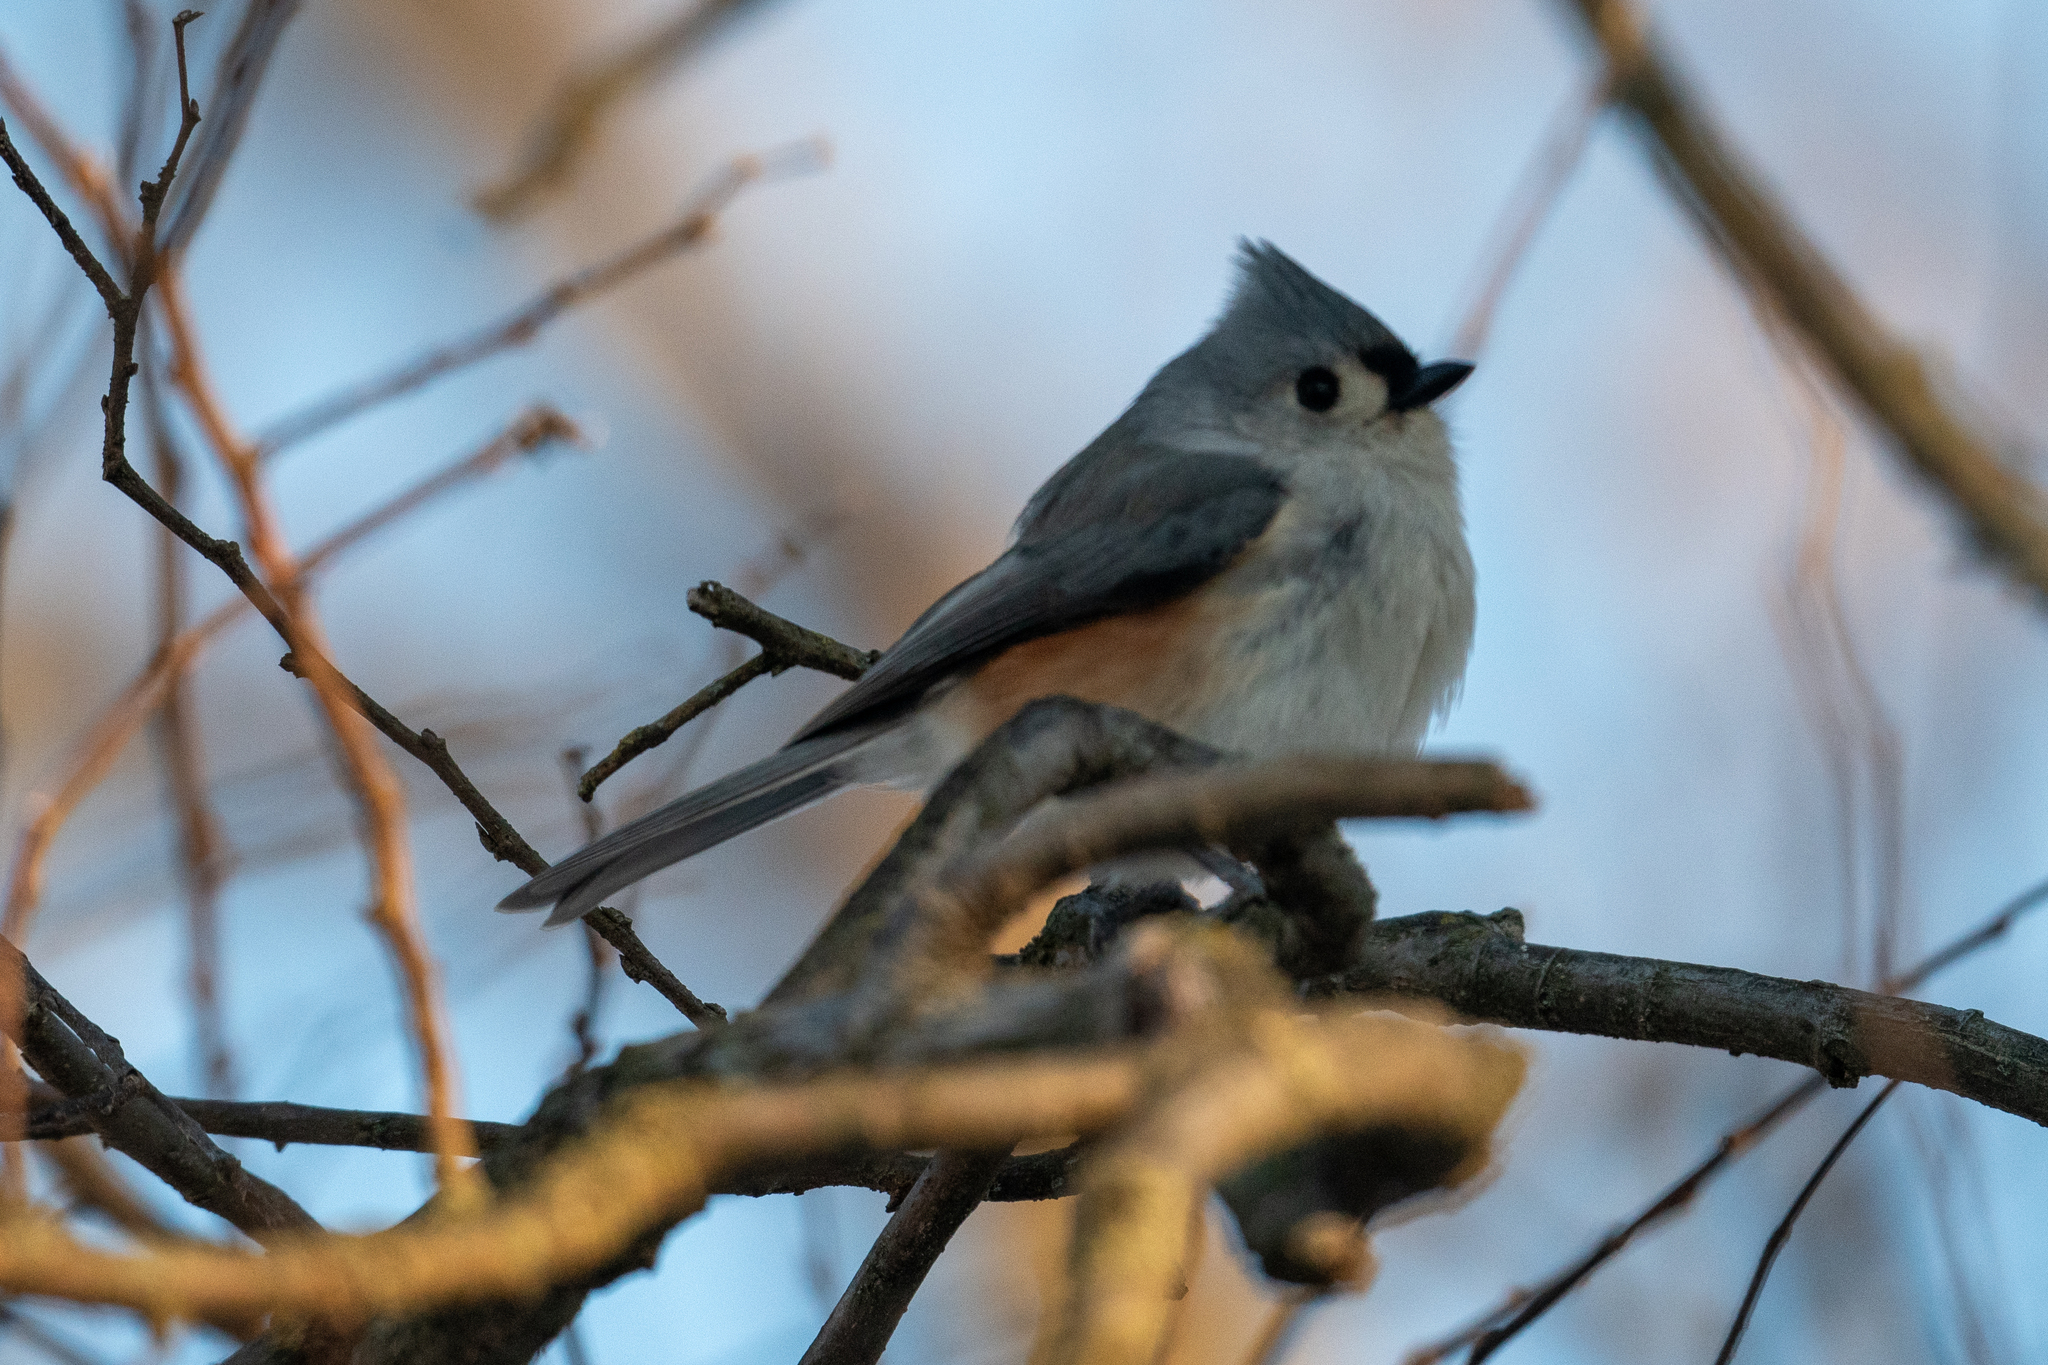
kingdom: Animalia
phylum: Chordata
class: Aves
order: Passeriformes
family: Paridae
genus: Baeolophus
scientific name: Baeolophus bicolor
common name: Tufted titmouse
